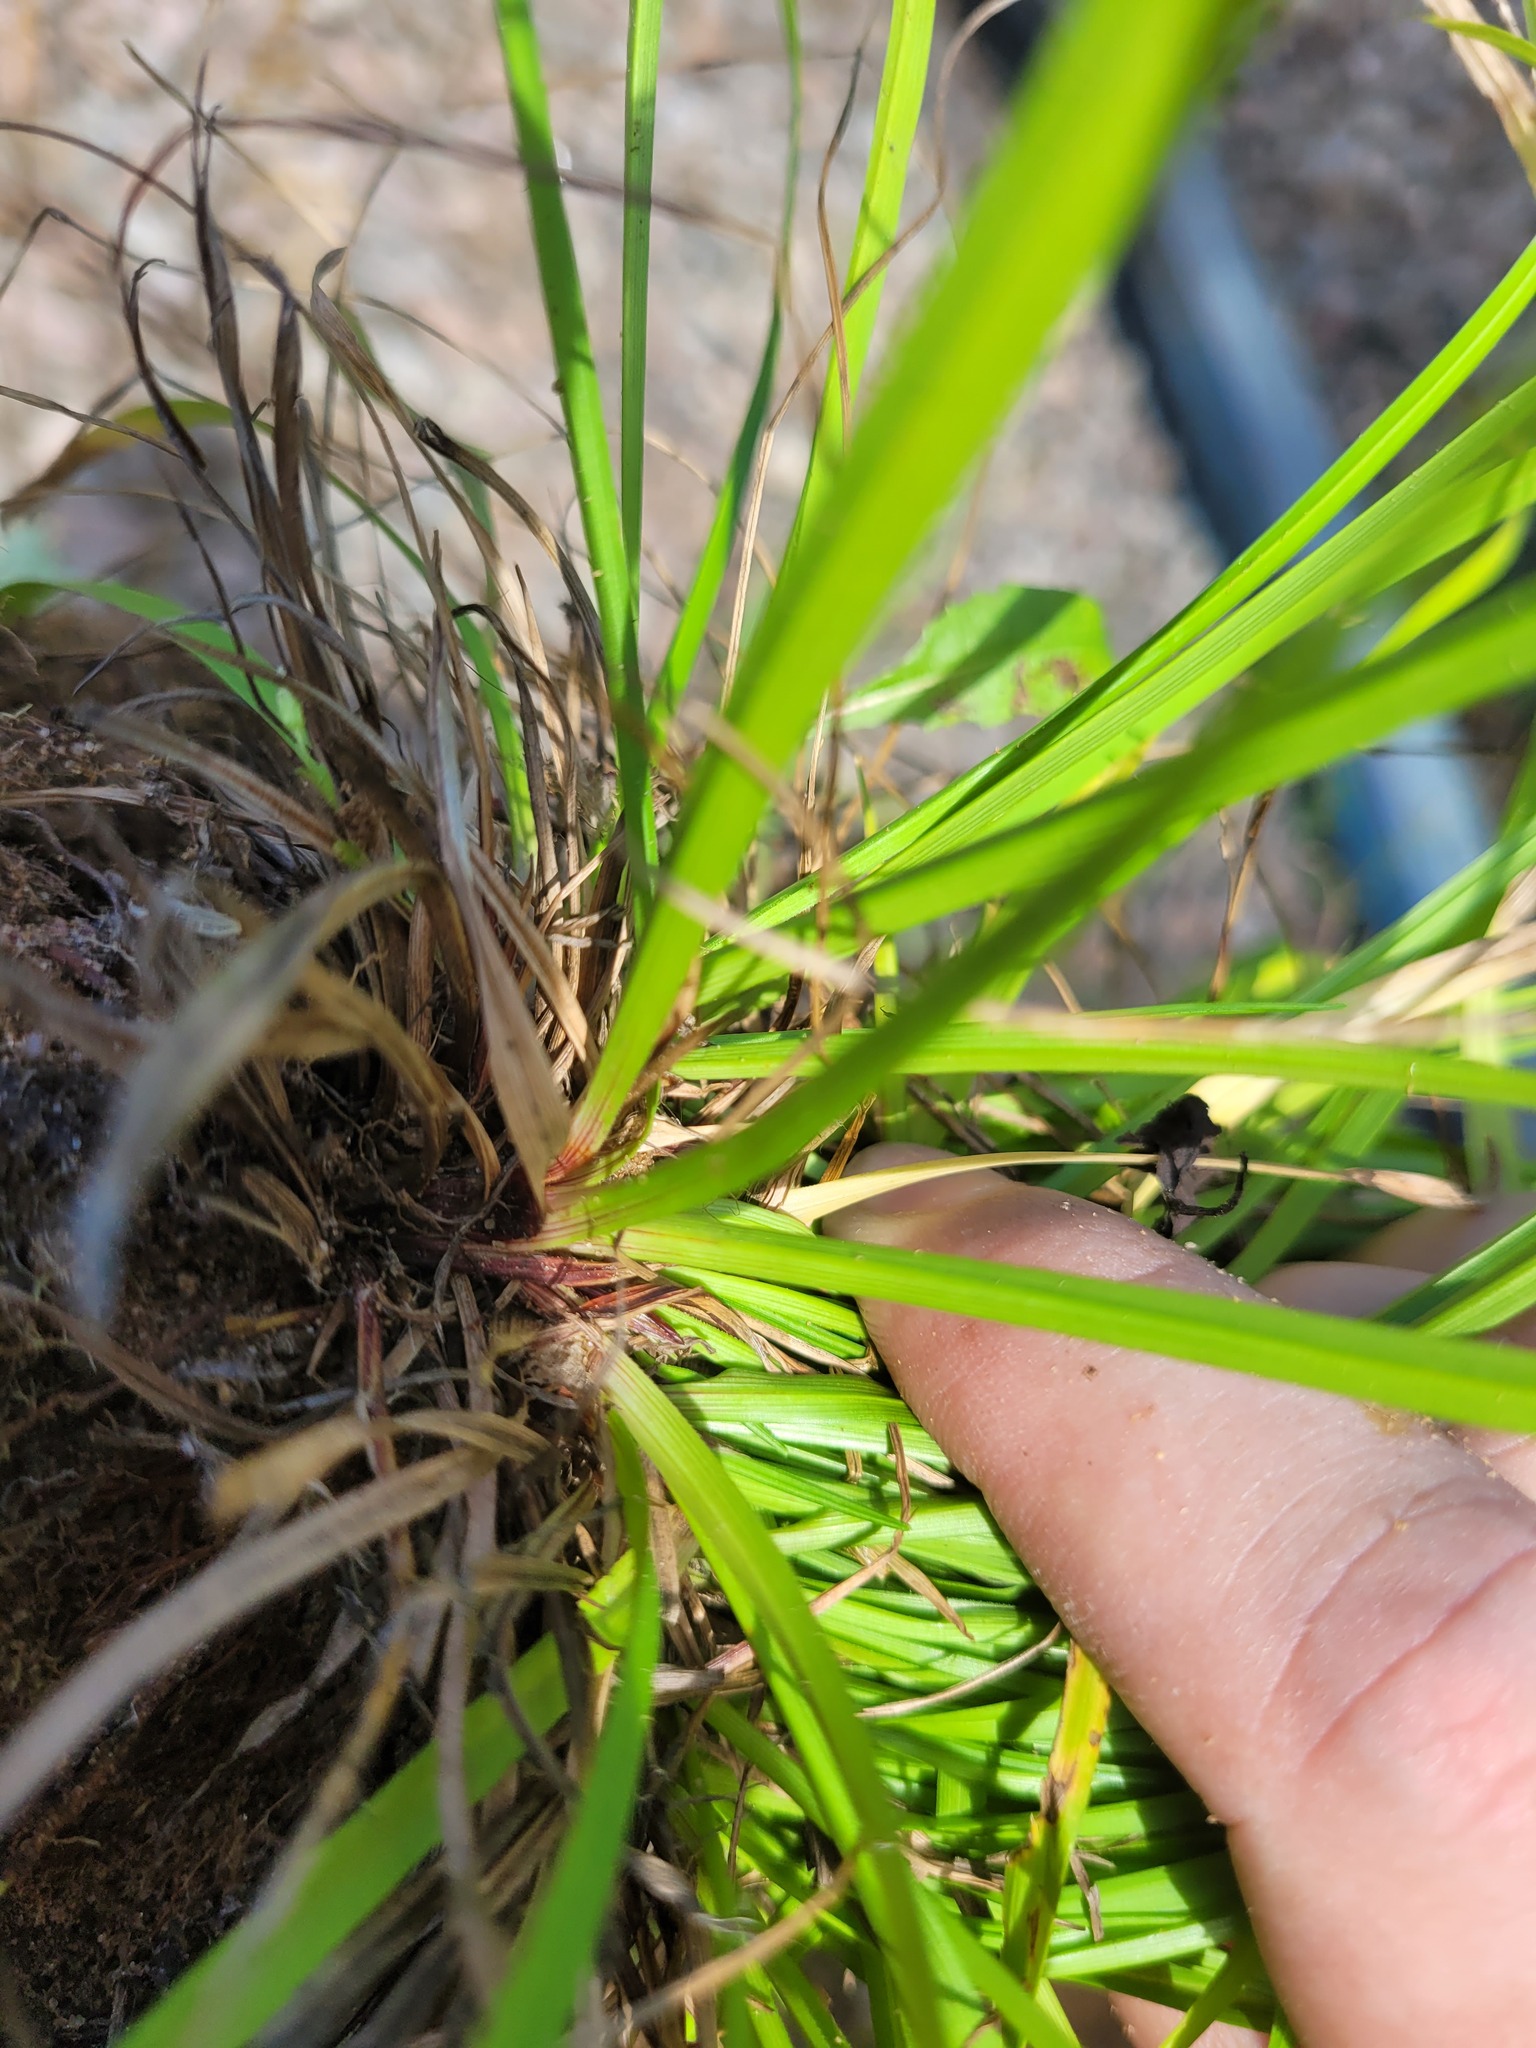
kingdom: Plantae
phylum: Tracheophyta
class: Liliopsida
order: Poales
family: Cyperaceae
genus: Carex
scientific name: Carex digitata
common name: Fingered sedge
